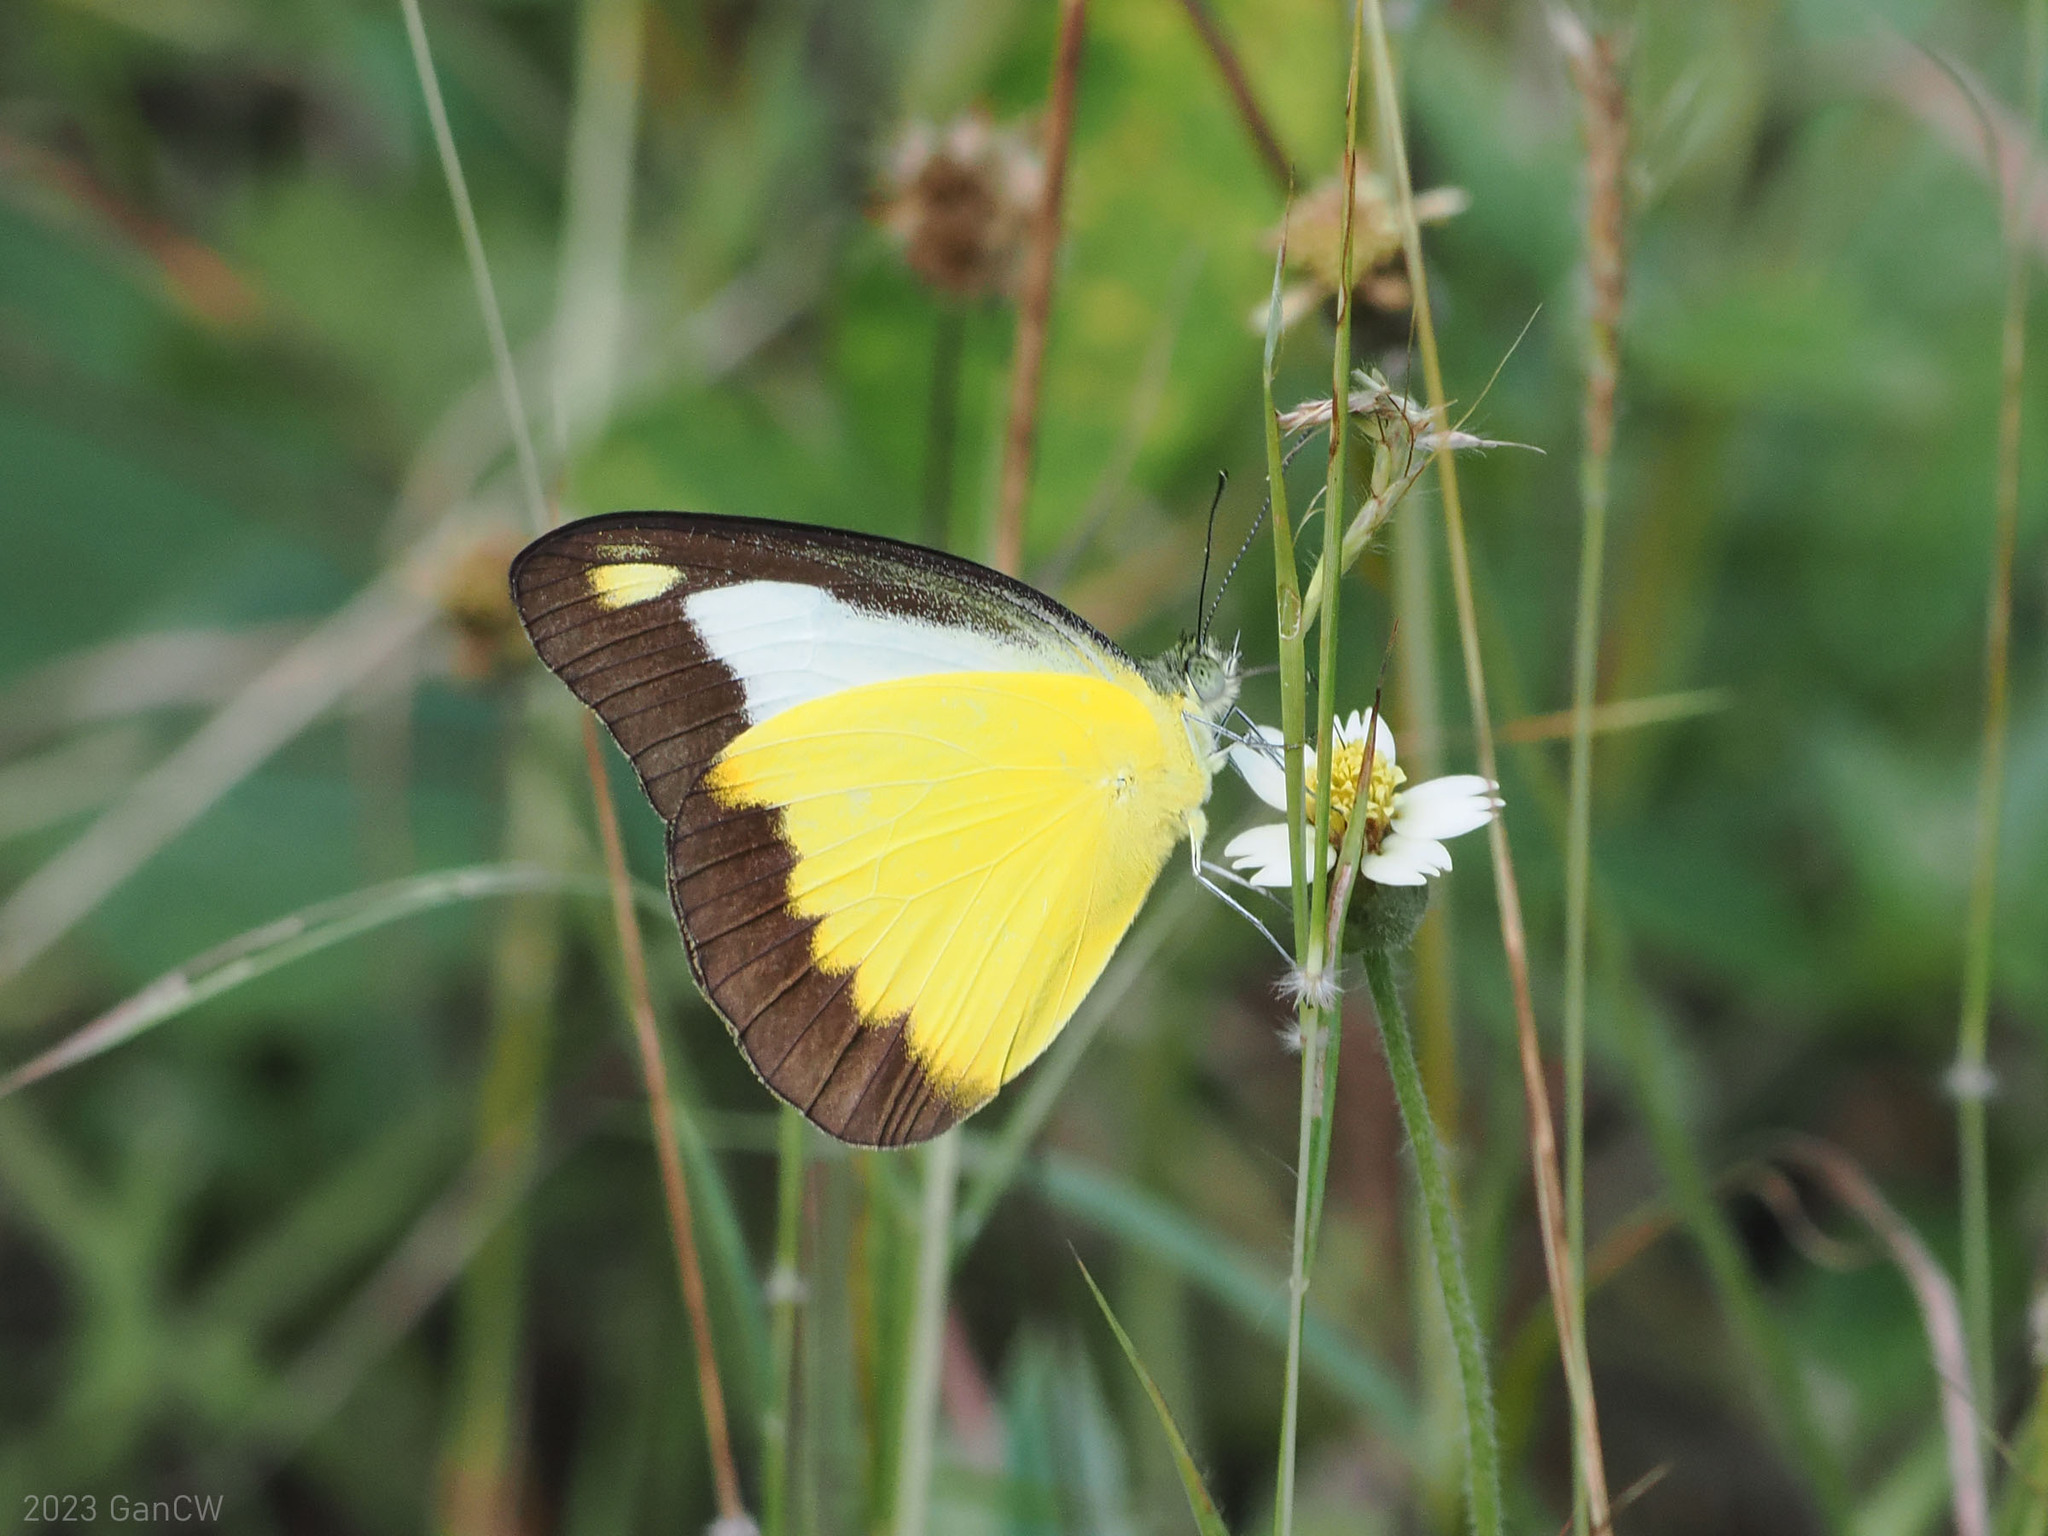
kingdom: Animalia
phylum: Arthropoda
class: Insecta
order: Lepidoptera
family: Pieridae
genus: Appias
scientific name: Appias nephele
